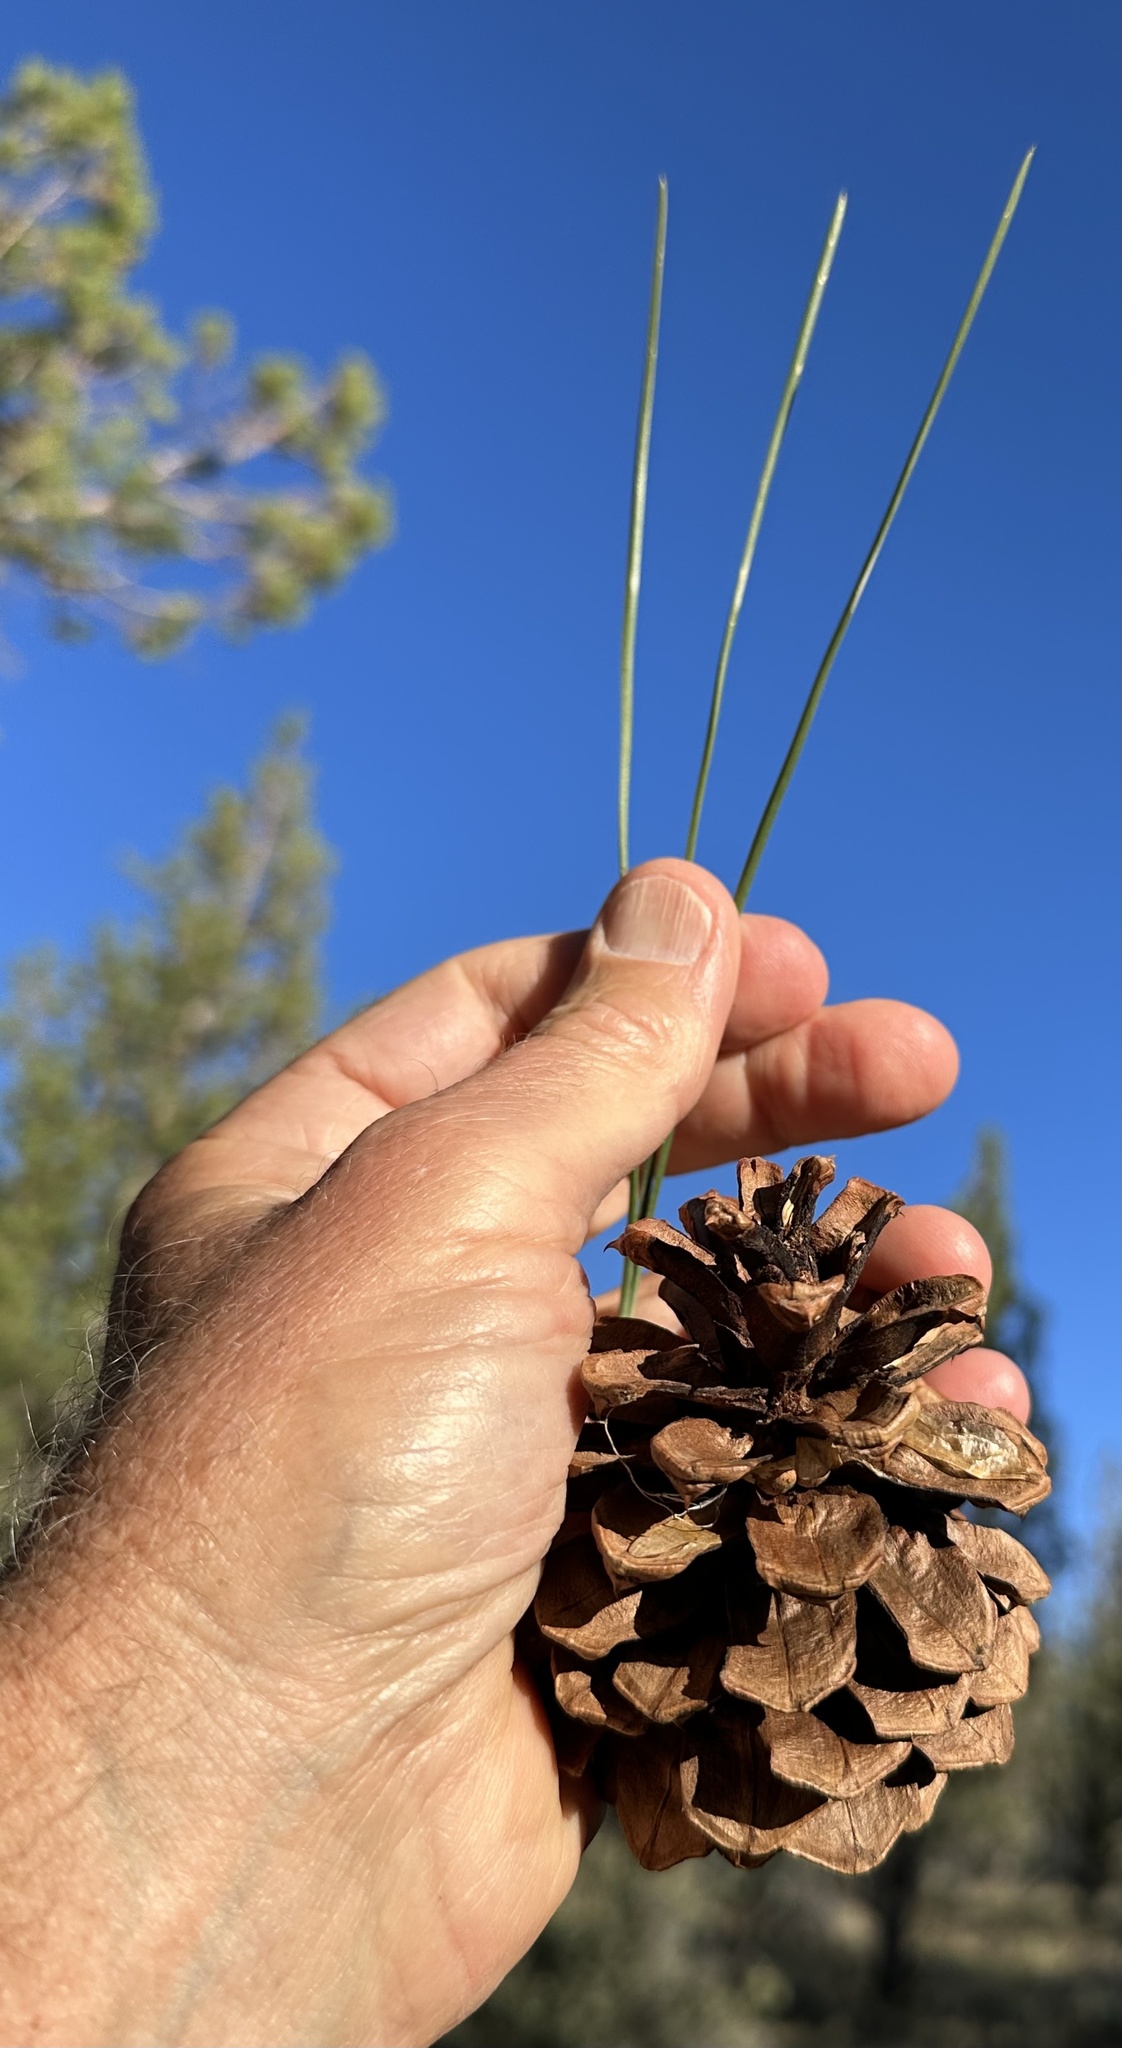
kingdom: Plantae
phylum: Tracheophyta
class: Pinopsida
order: Pinales
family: Pinaceae
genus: Pinus
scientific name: Pinus ponderosa
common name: Western yellow-pine
